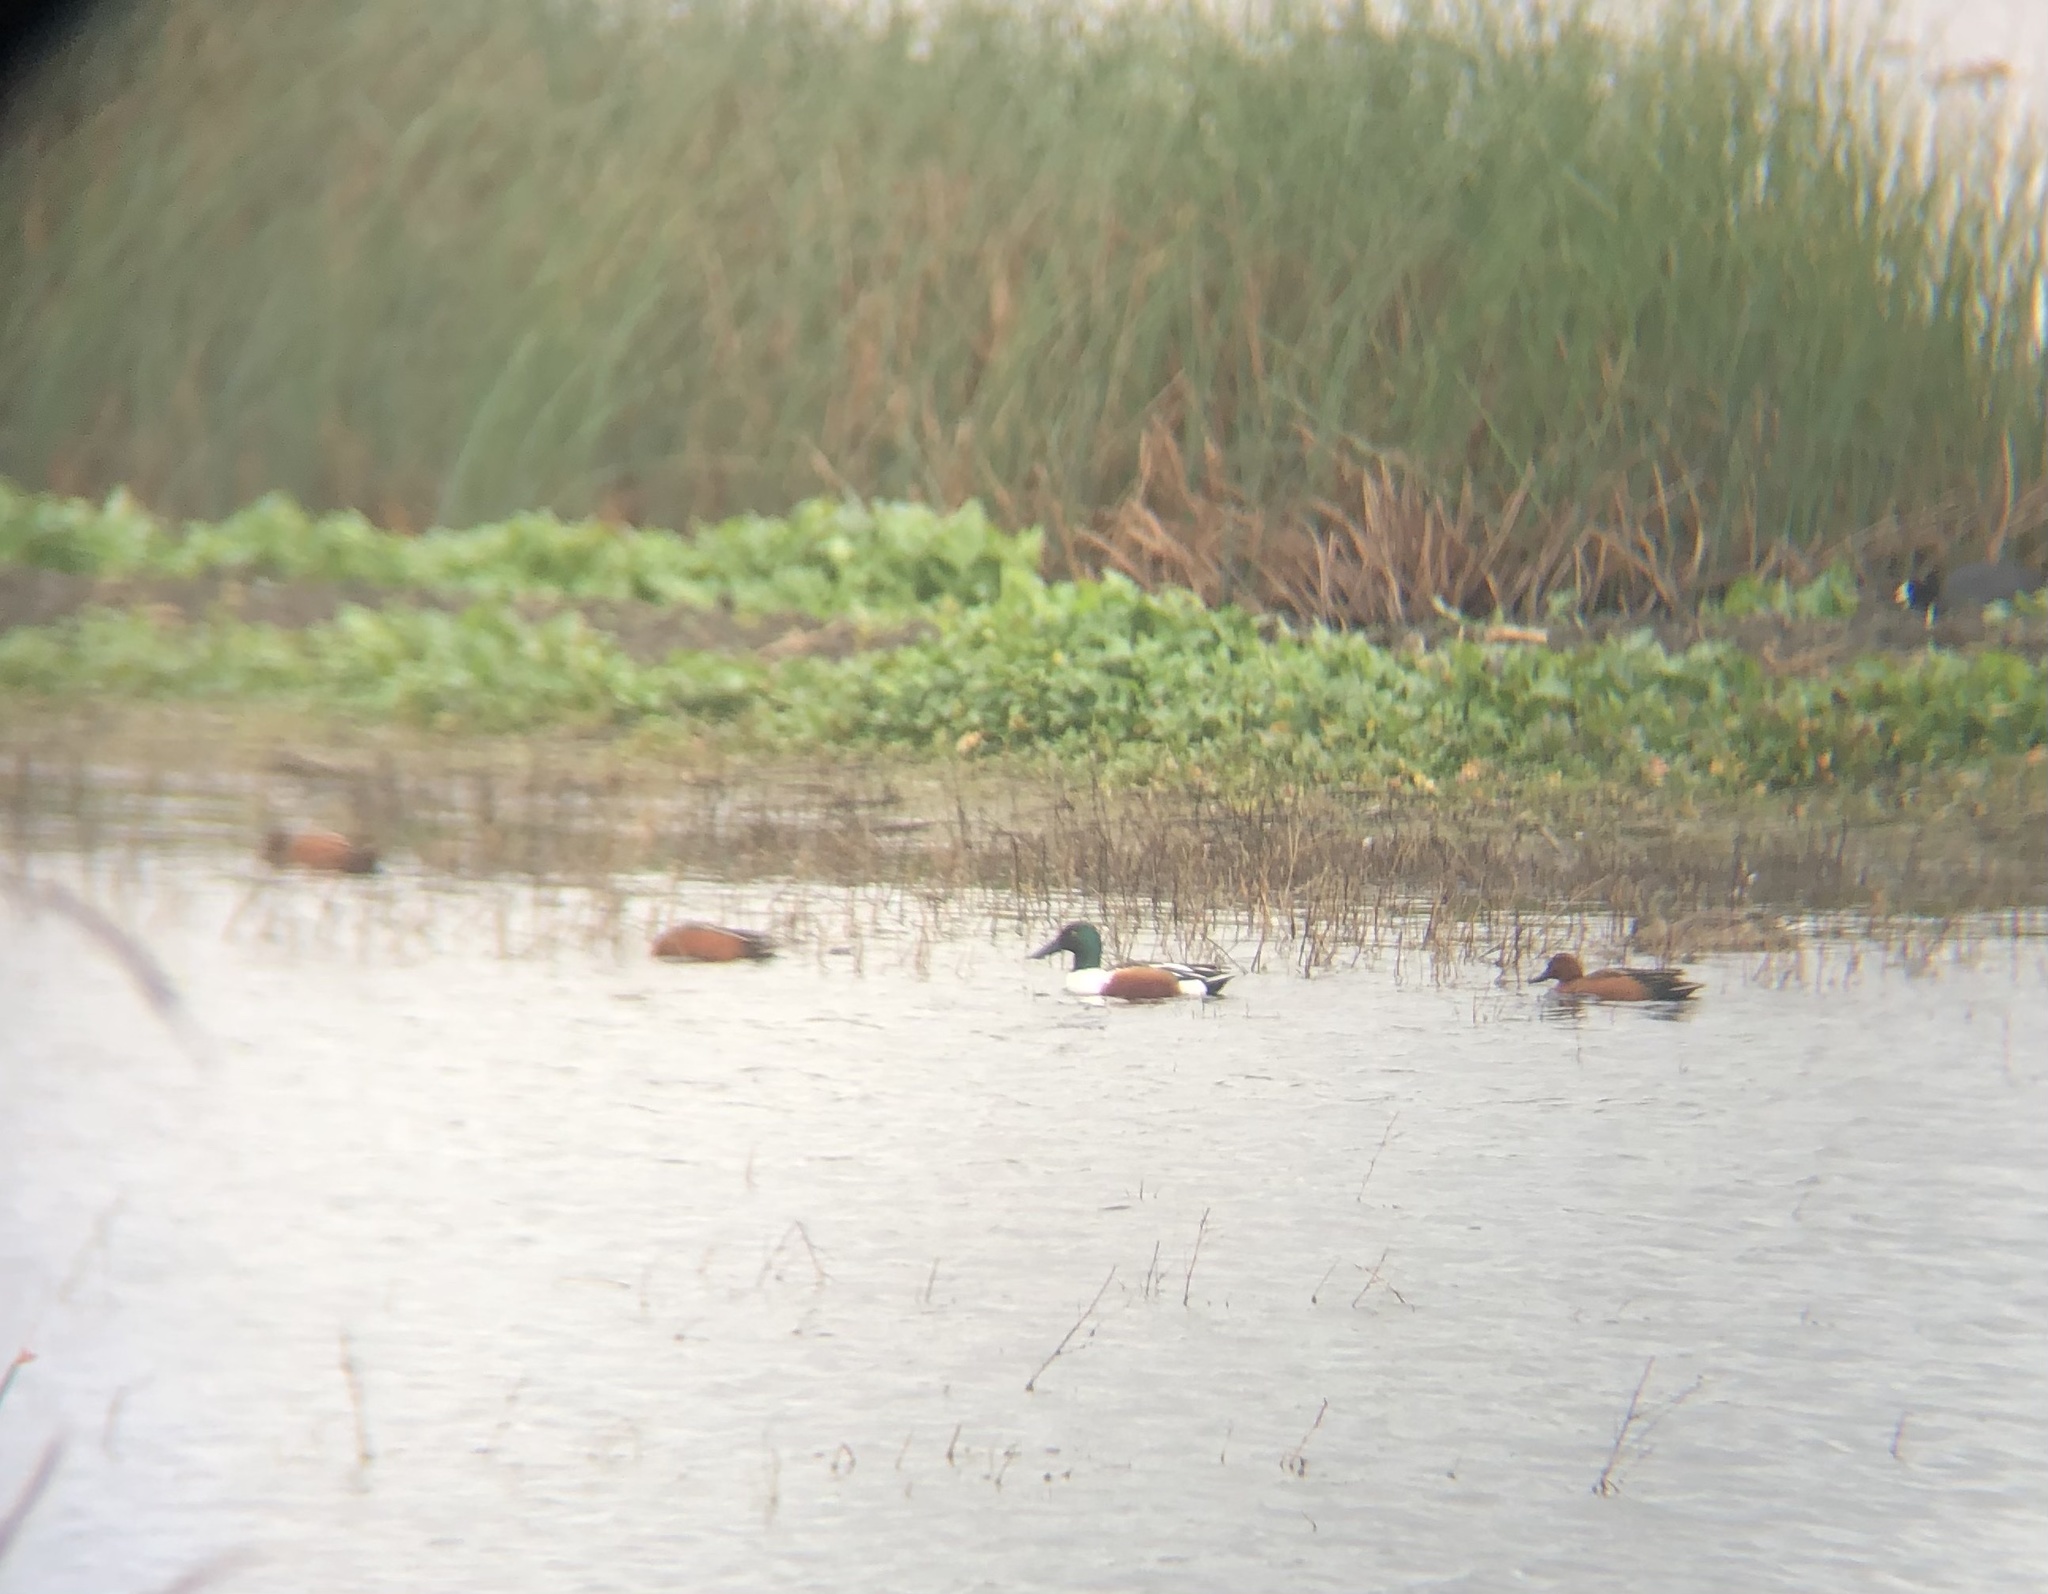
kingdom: Animalia
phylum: Chordata
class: Aves
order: Anseriformes
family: Anatidae
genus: Spatula
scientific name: Spatula clypeata
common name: Northern shoveler
